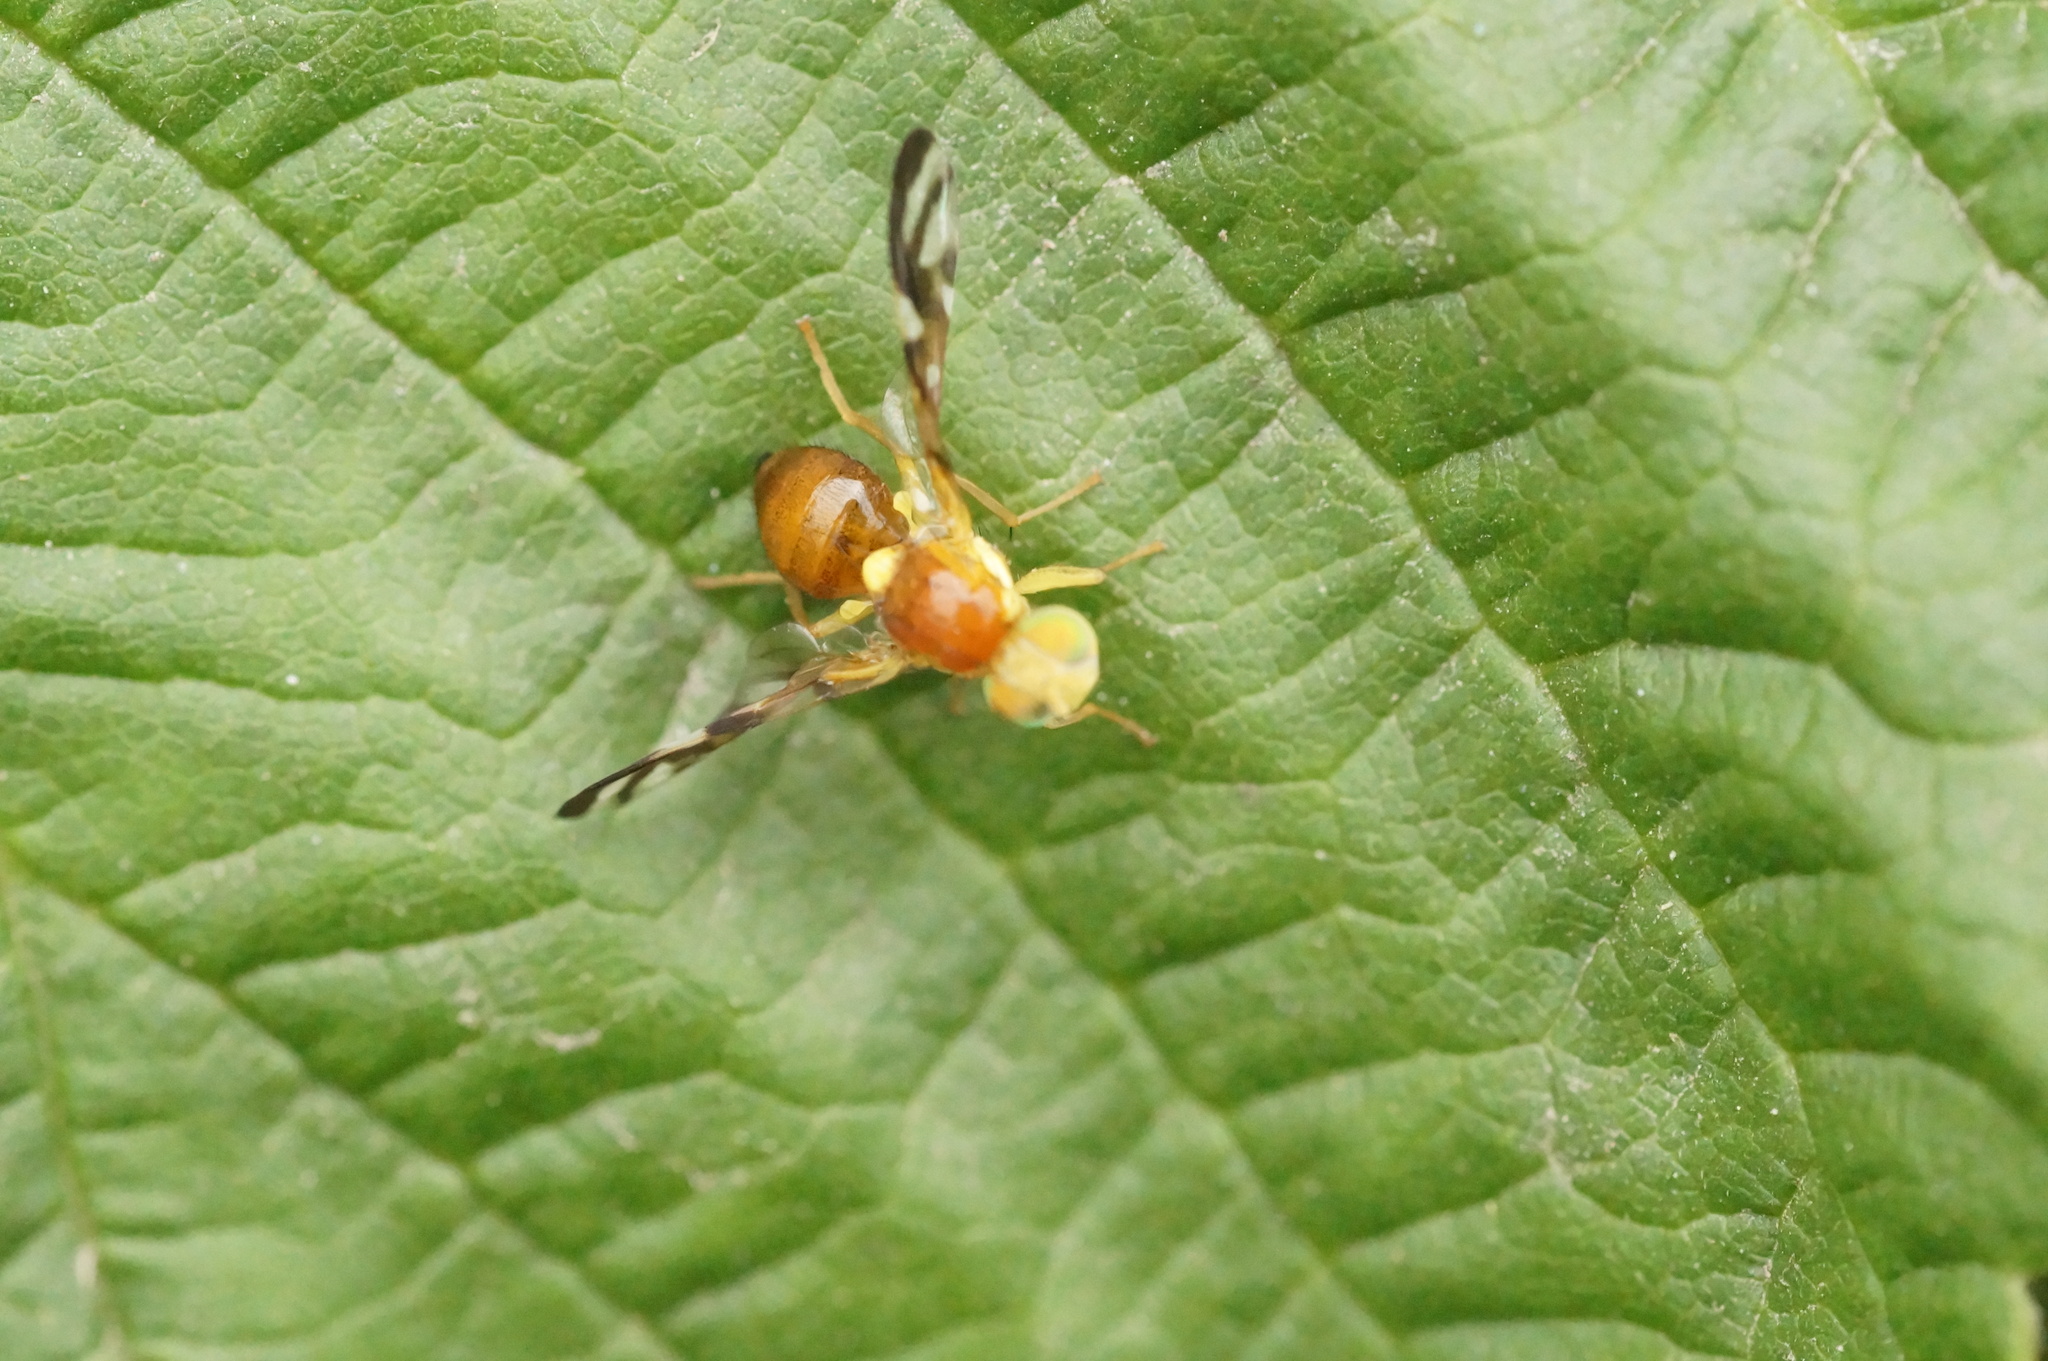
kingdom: Animalia
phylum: Arthropoda
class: Insecta
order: Diptera
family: Tephritidae
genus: Euleia
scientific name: Euleia
